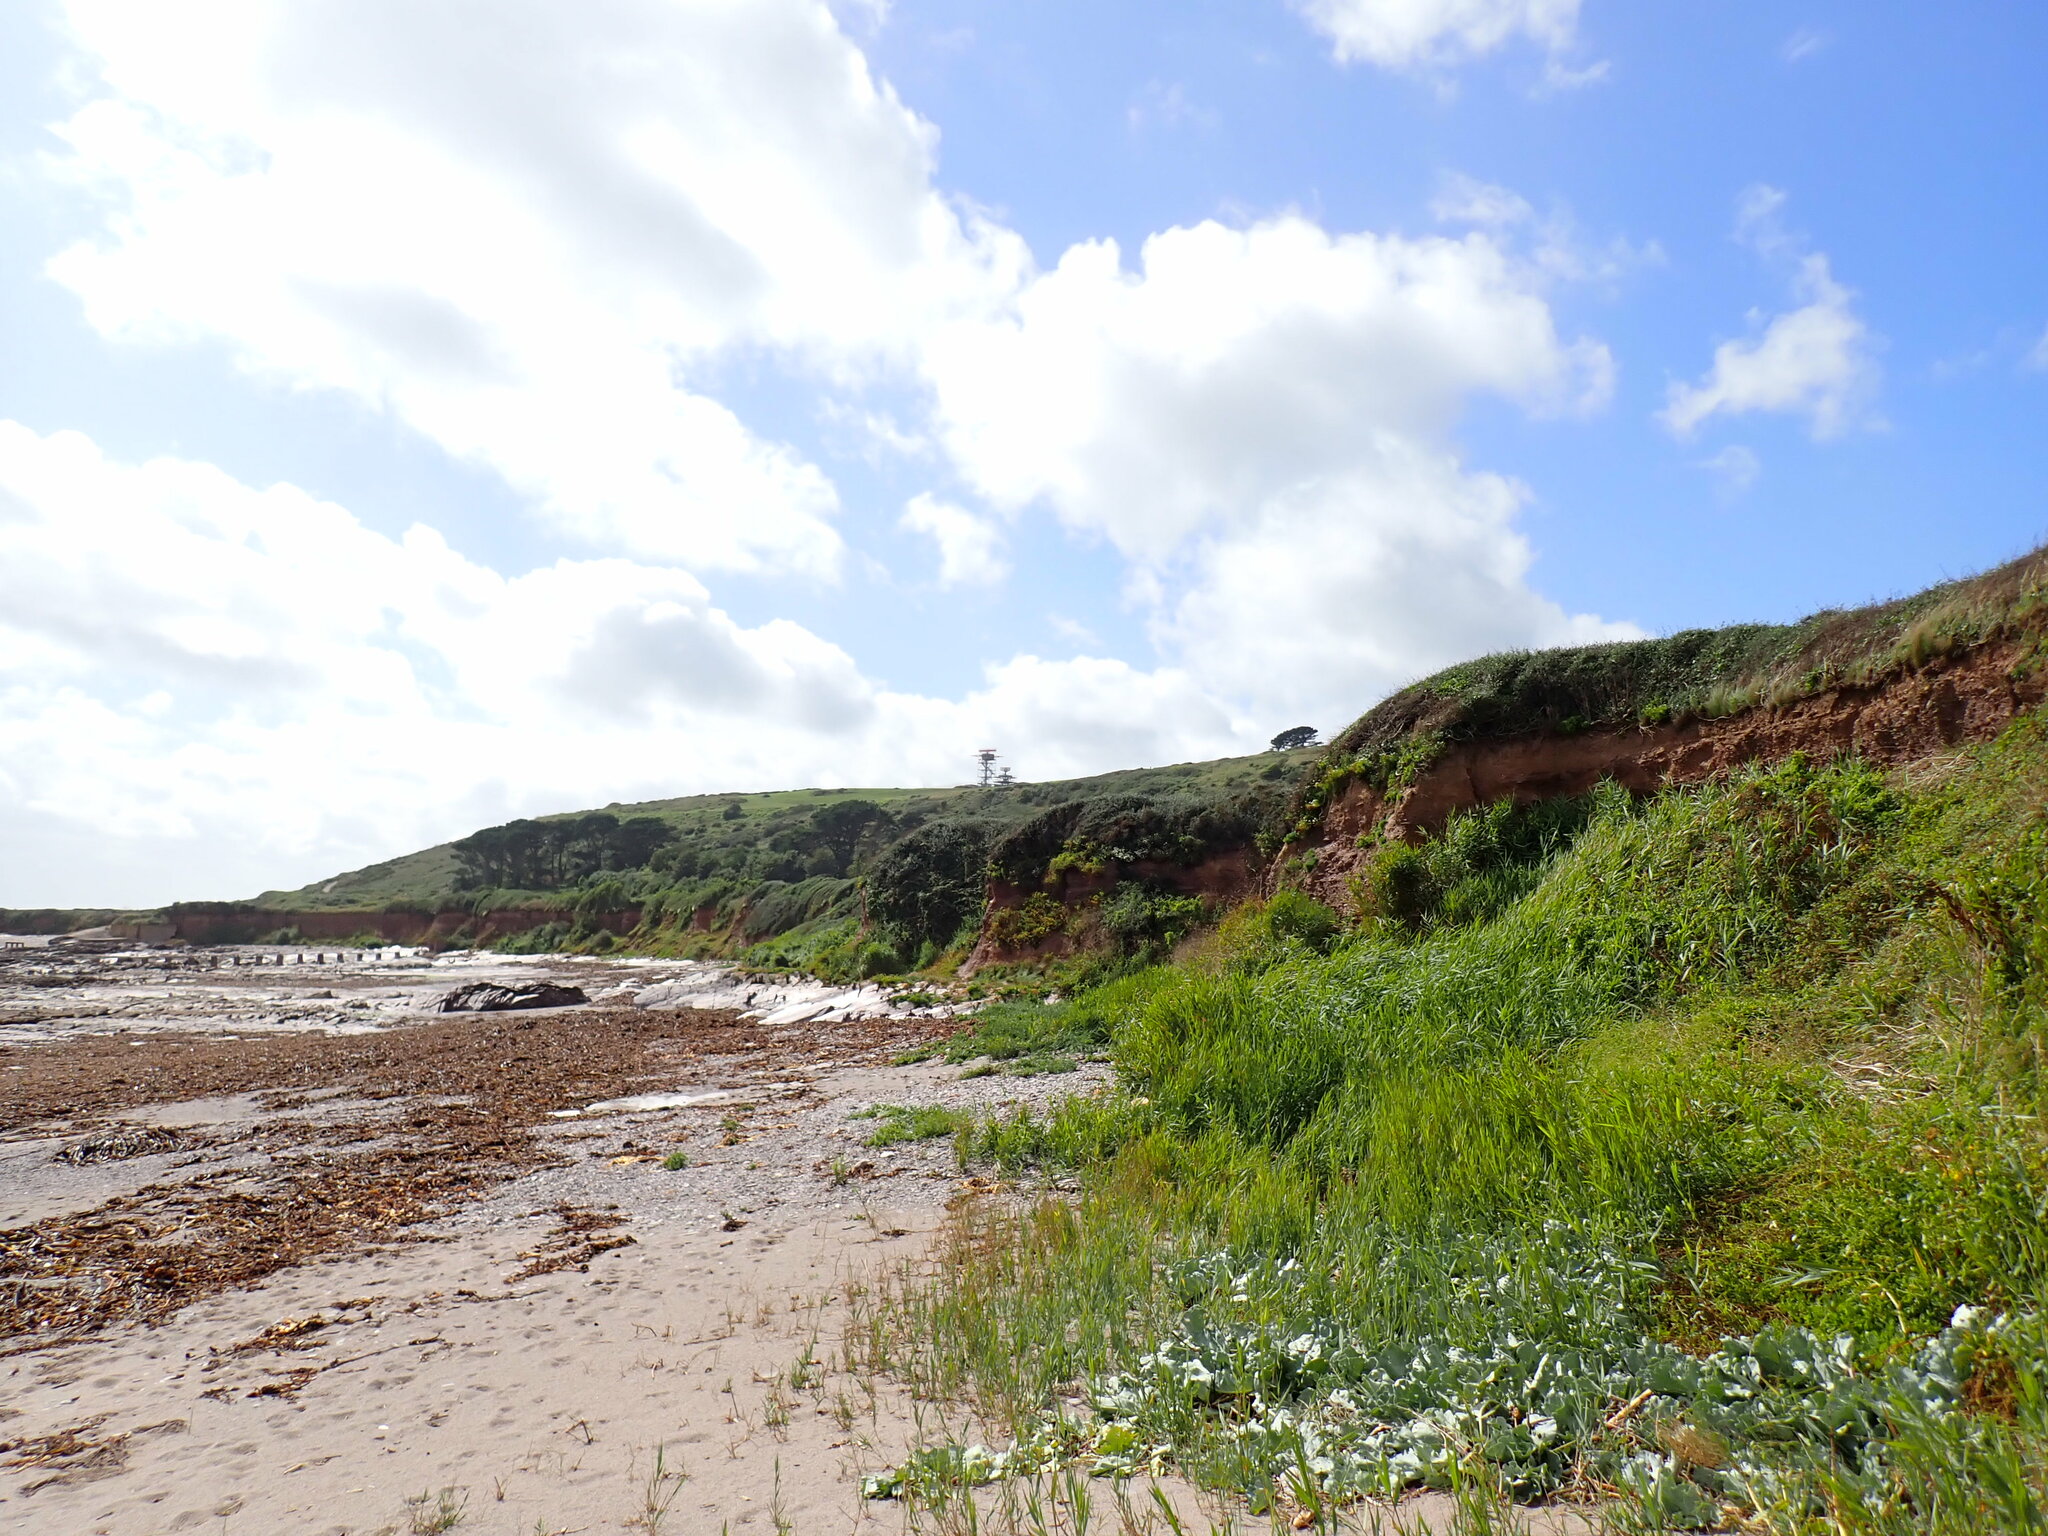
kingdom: Plantae
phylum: Tracheophyta
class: Magnoliopsida
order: Brassicales
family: Brassicaceae
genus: Crambe
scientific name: Crambe maritima
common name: Sea-kale
